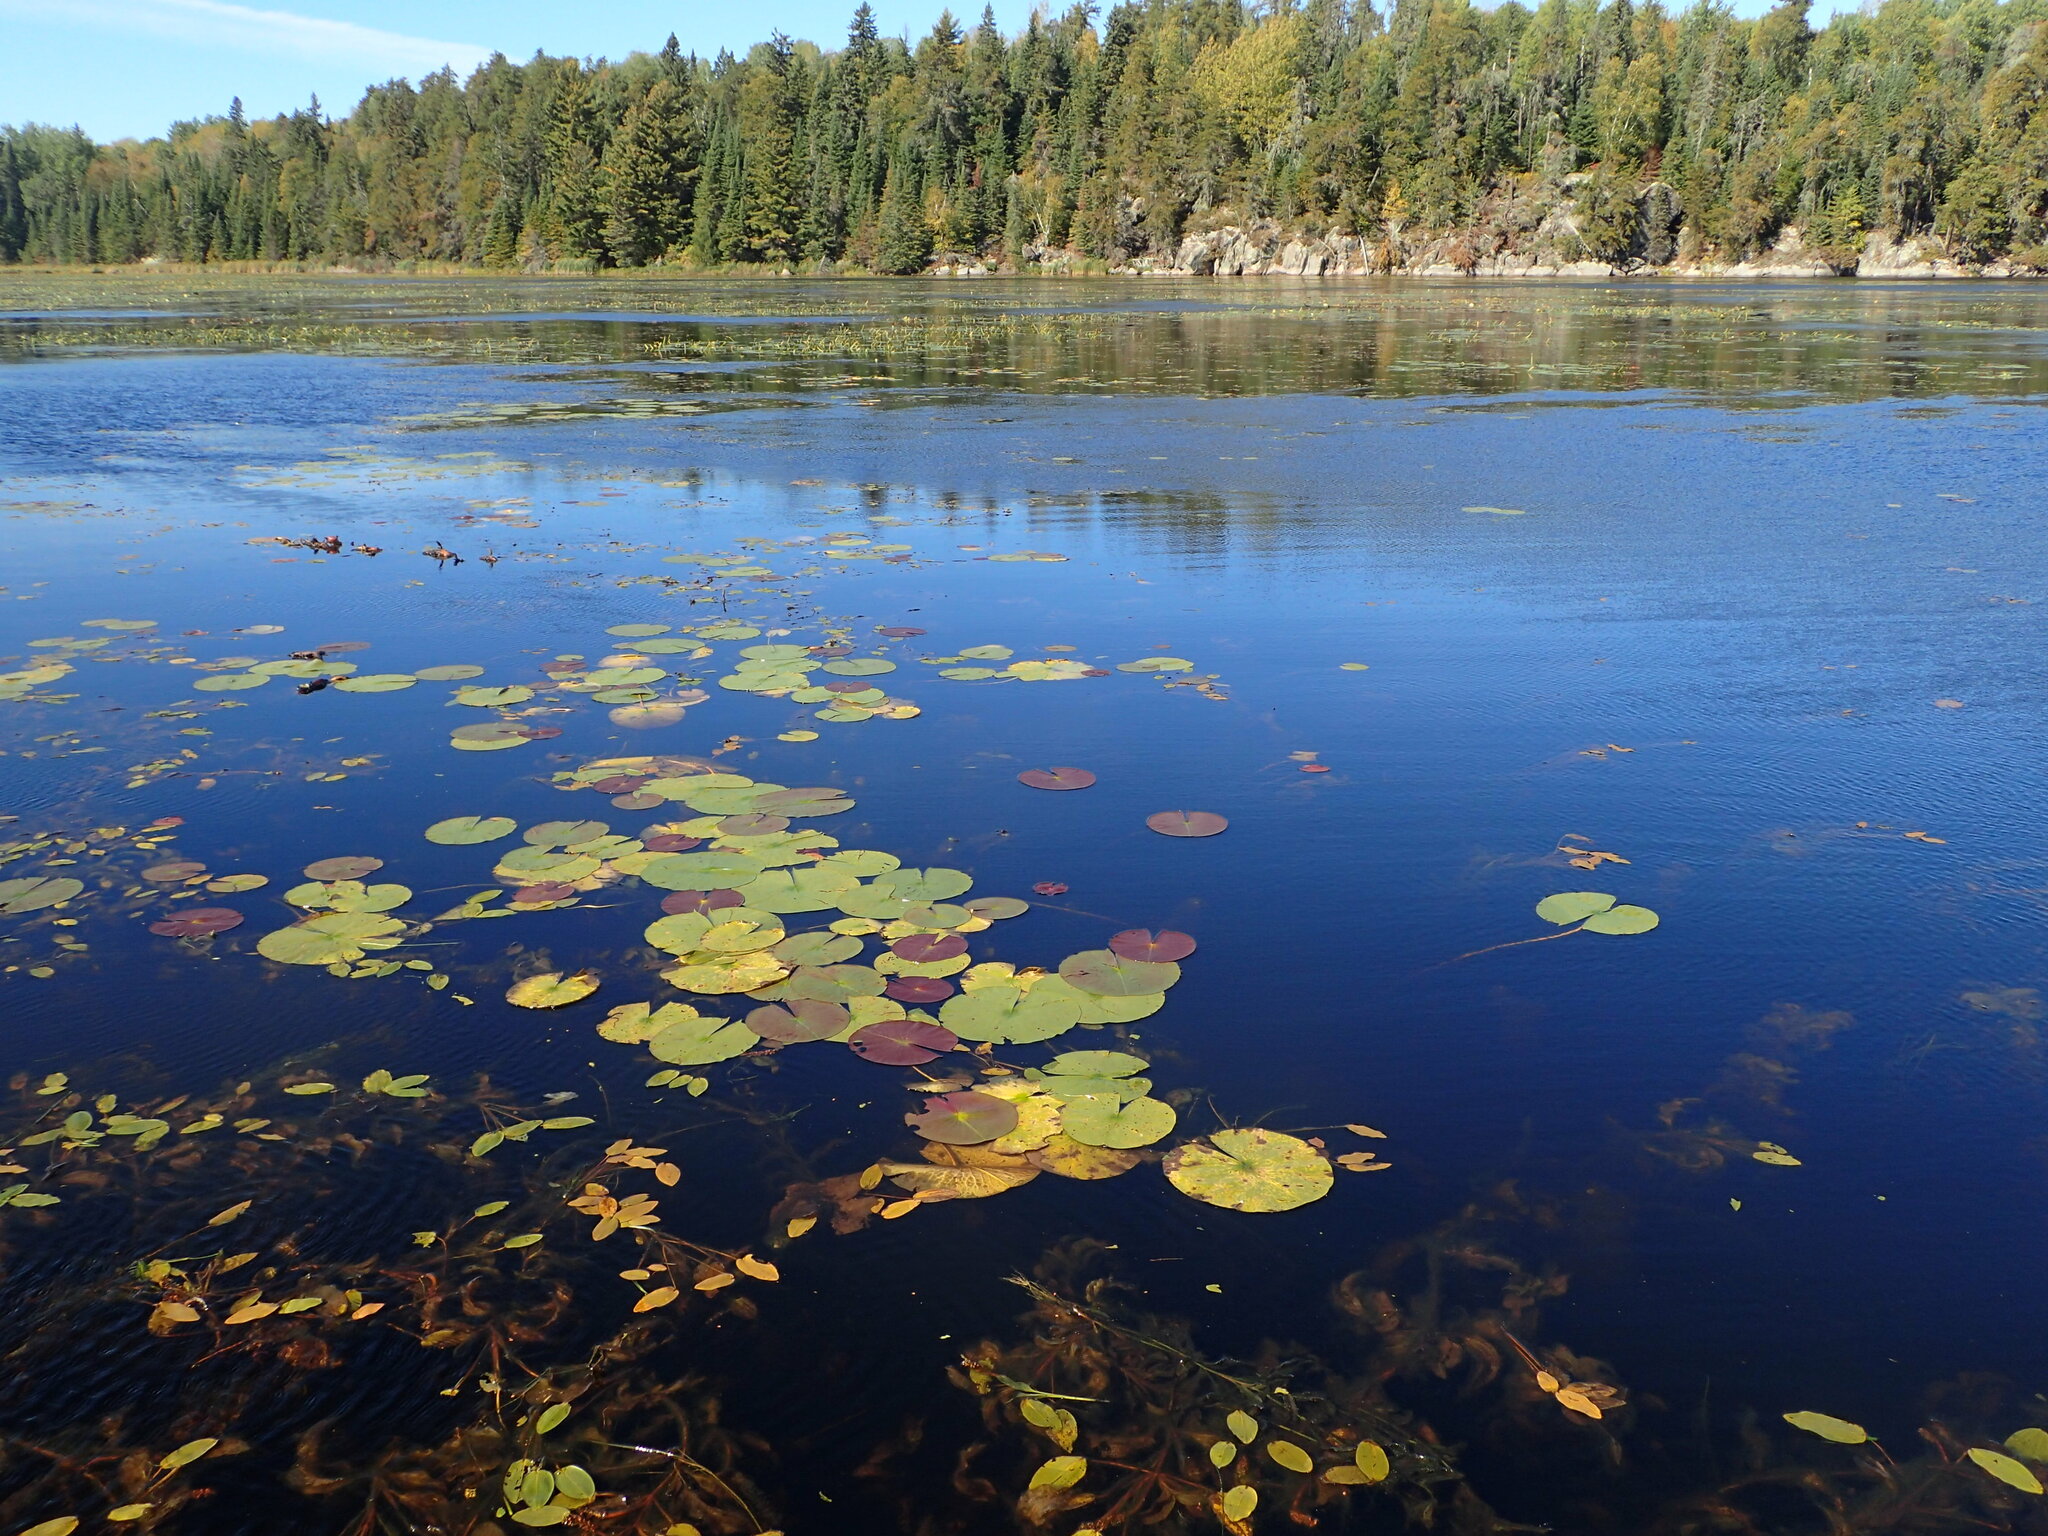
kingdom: Plantae
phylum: Tracheophyta
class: Magnoliopsida
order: Nymphaeales
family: Nymphaeaceae
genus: Nymphaea
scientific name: Nymphaea odorata
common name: Fragrant water-lily
